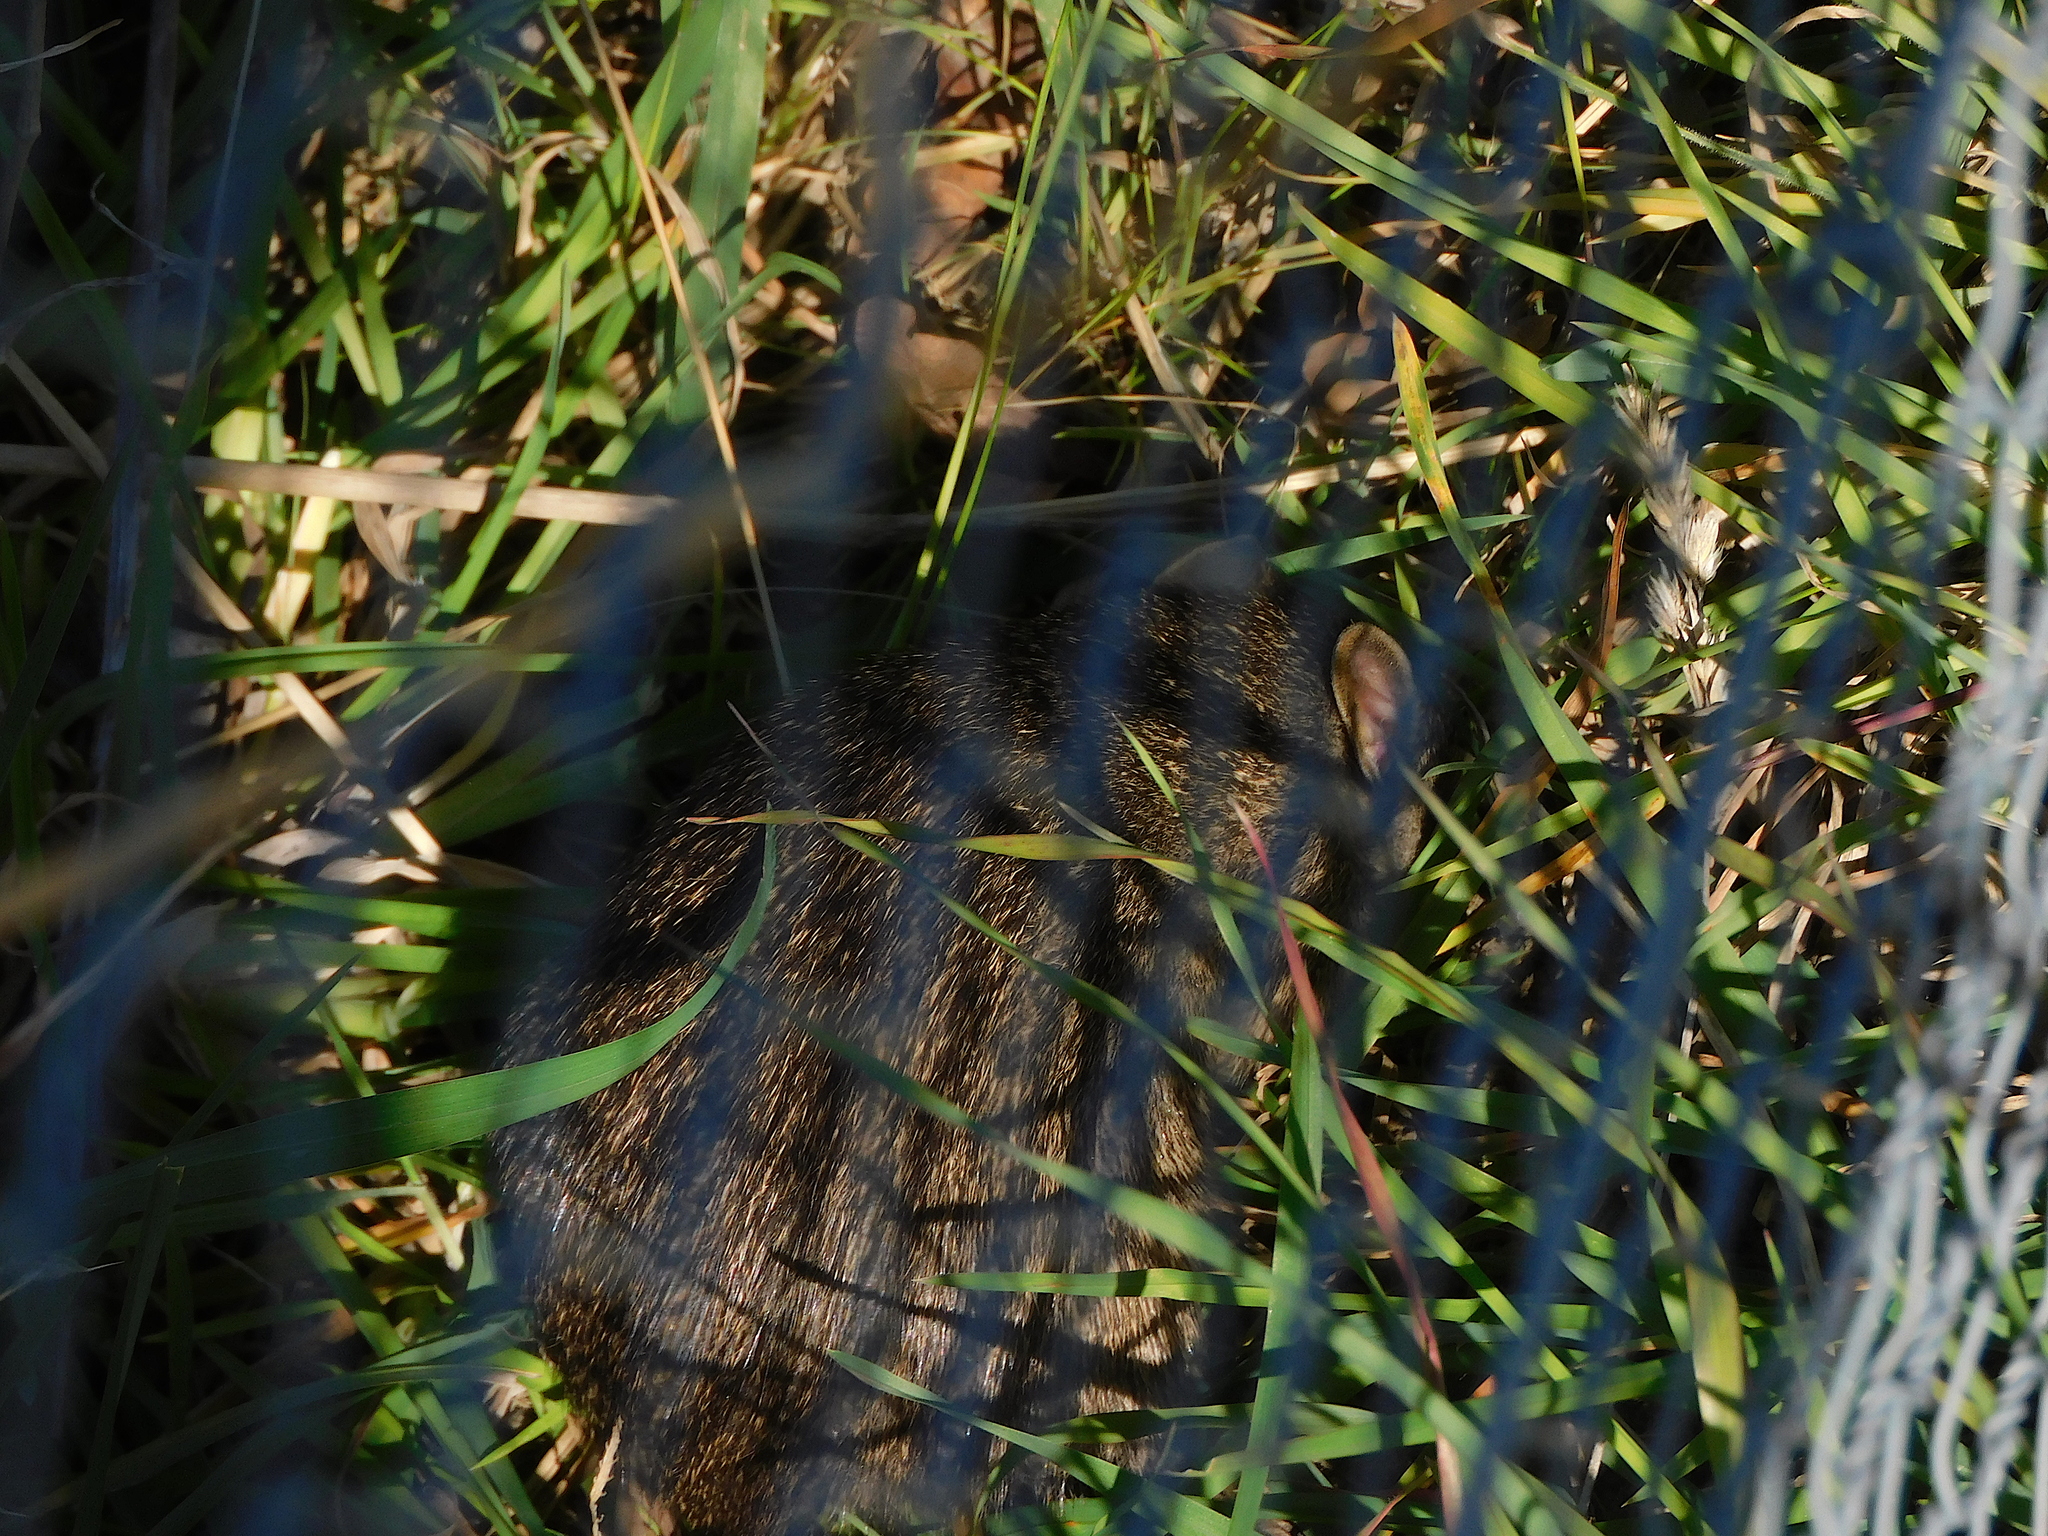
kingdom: Animalia
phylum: Chordata
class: Mammalia
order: Peramelemorphia
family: Peramelidae
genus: Isoodon
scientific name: Isoodon obesulus
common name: Southern brown bandicoot
